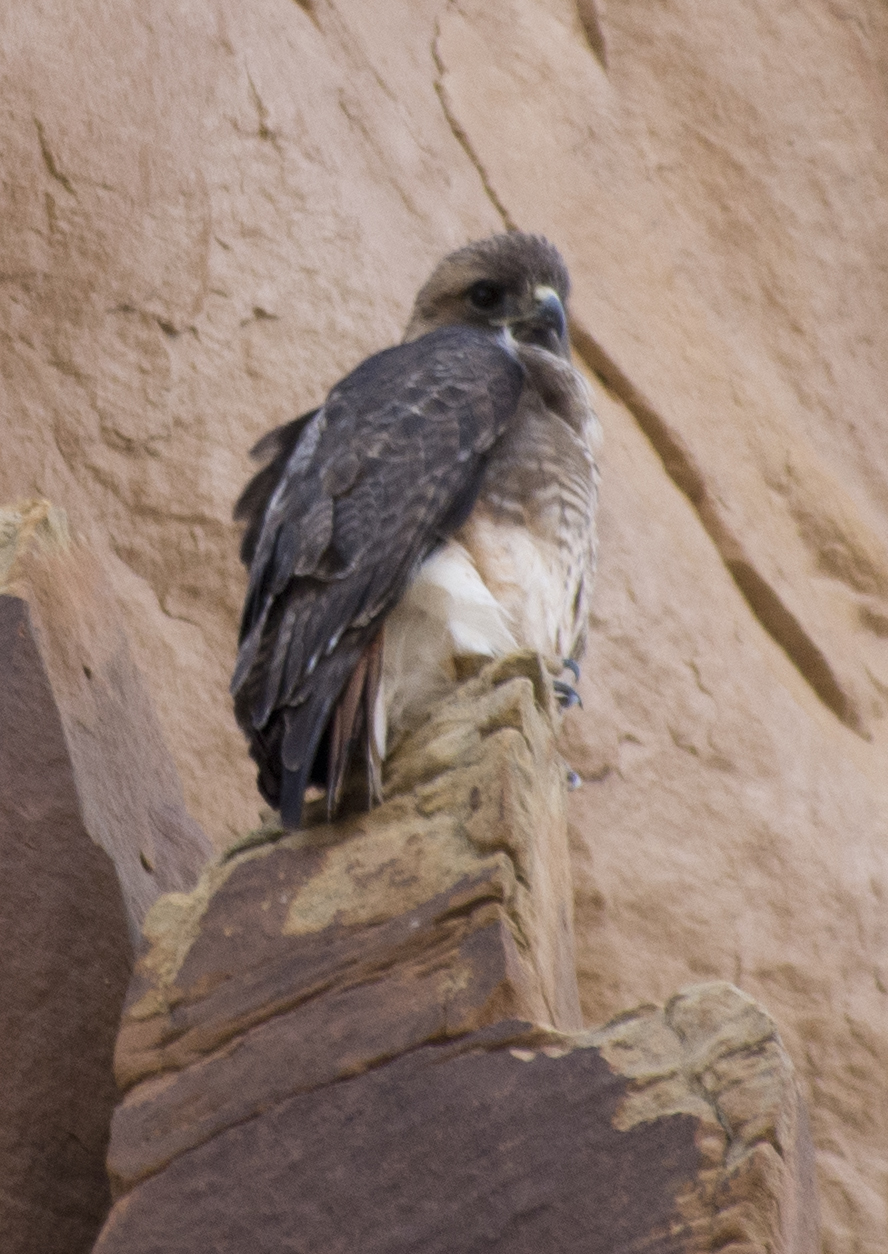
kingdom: Animalia
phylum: Chordata
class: Aves
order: Accipitriformes
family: Accipitridae
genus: Buteo
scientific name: Buteo jamaicensis
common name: Red-tailed hawk
